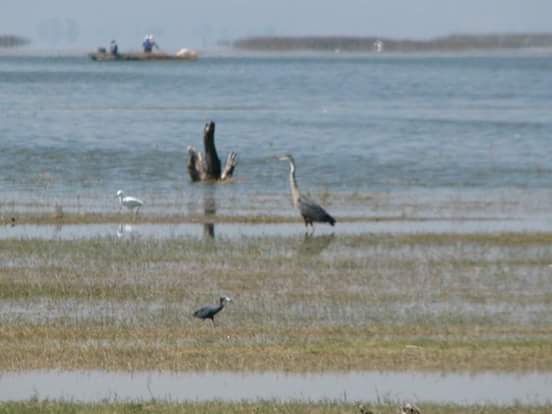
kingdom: Animalia
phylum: Chordata
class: Aves
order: Pelecaniformes
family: Ardeidae
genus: Ardea
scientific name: Ardea herodias
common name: Great blue heron
